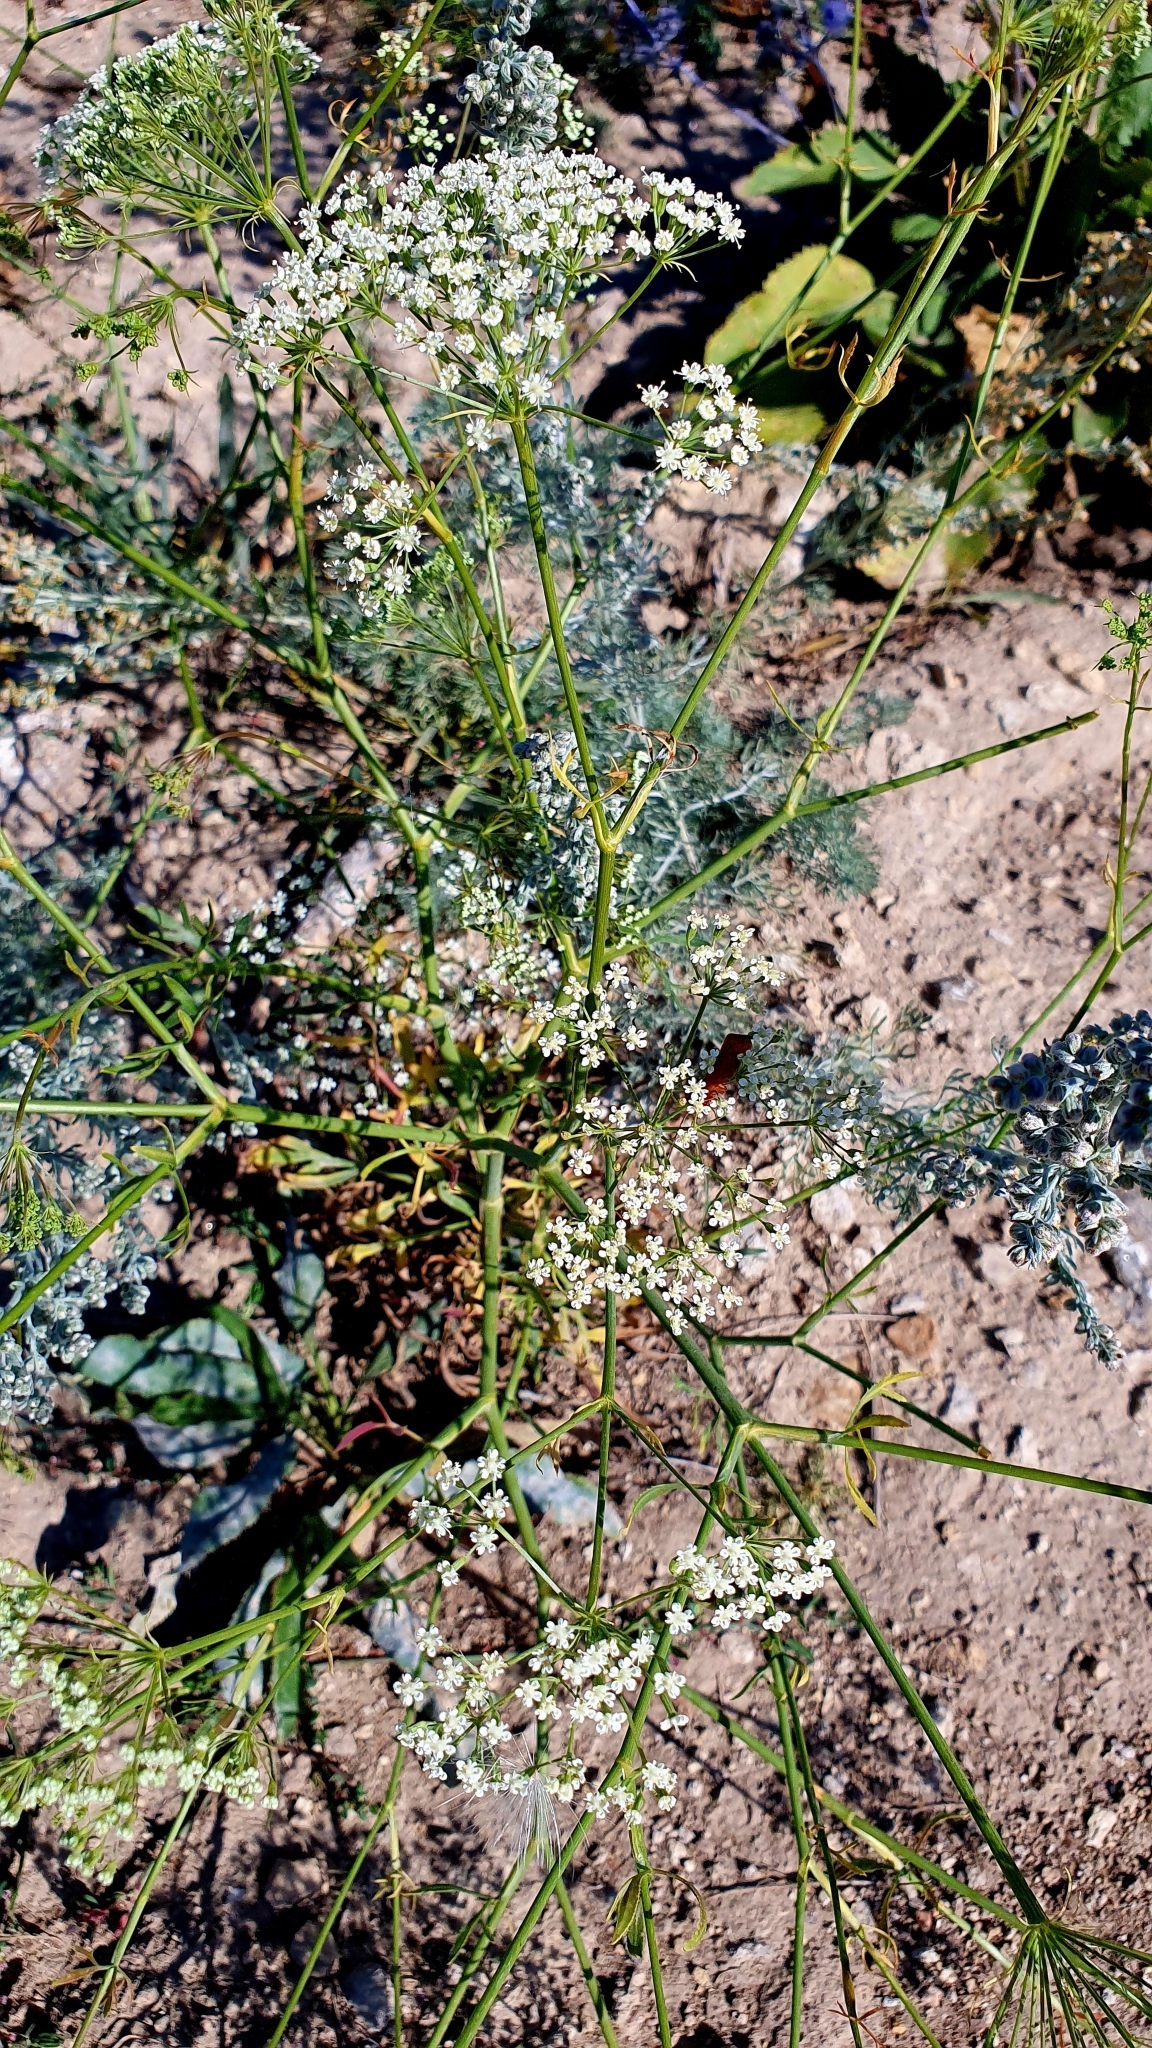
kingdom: Plantae
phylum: Tracheophyta
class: Magnoliopsida
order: Apiales
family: Apiaceae
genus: Falcaria
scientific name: Falcaria vulgaris
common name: Longleaf
